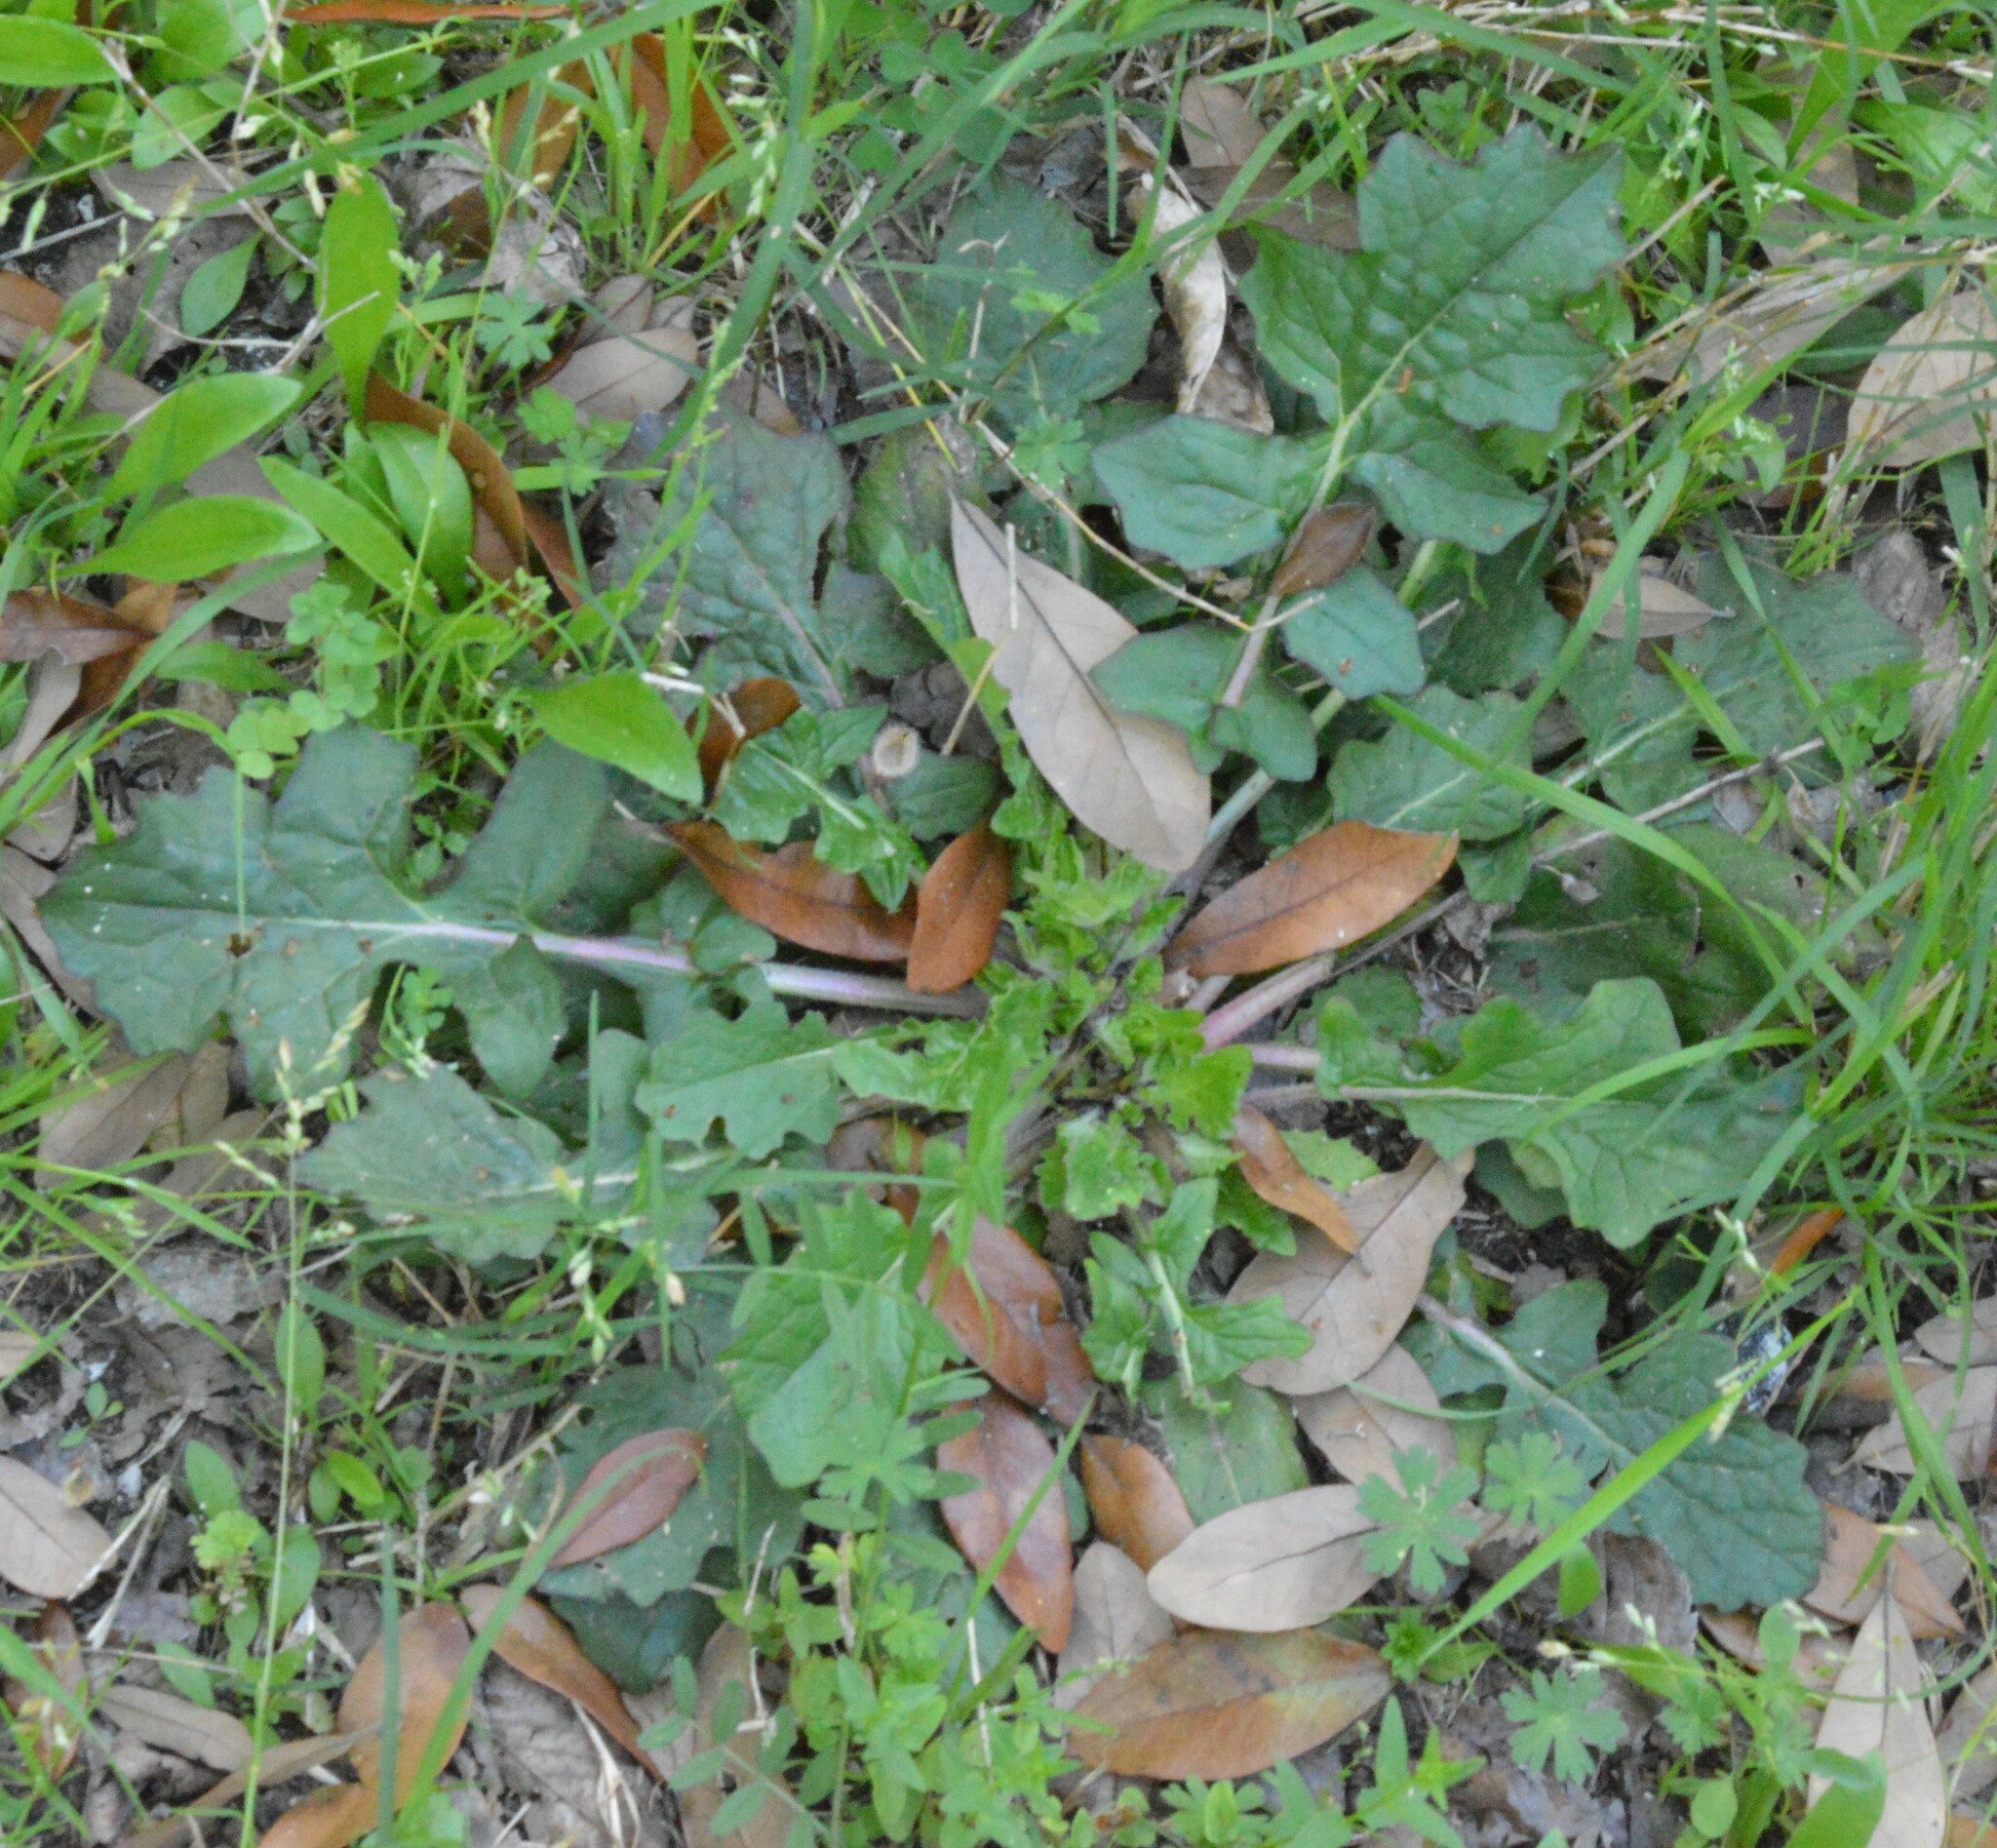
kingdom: Plantae
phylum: Tracheophyta
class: Magnoliopsida
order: Lamiales
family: Lamiaceae
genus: Salvia
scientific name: Salvia lyrata
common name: Cancerweed
